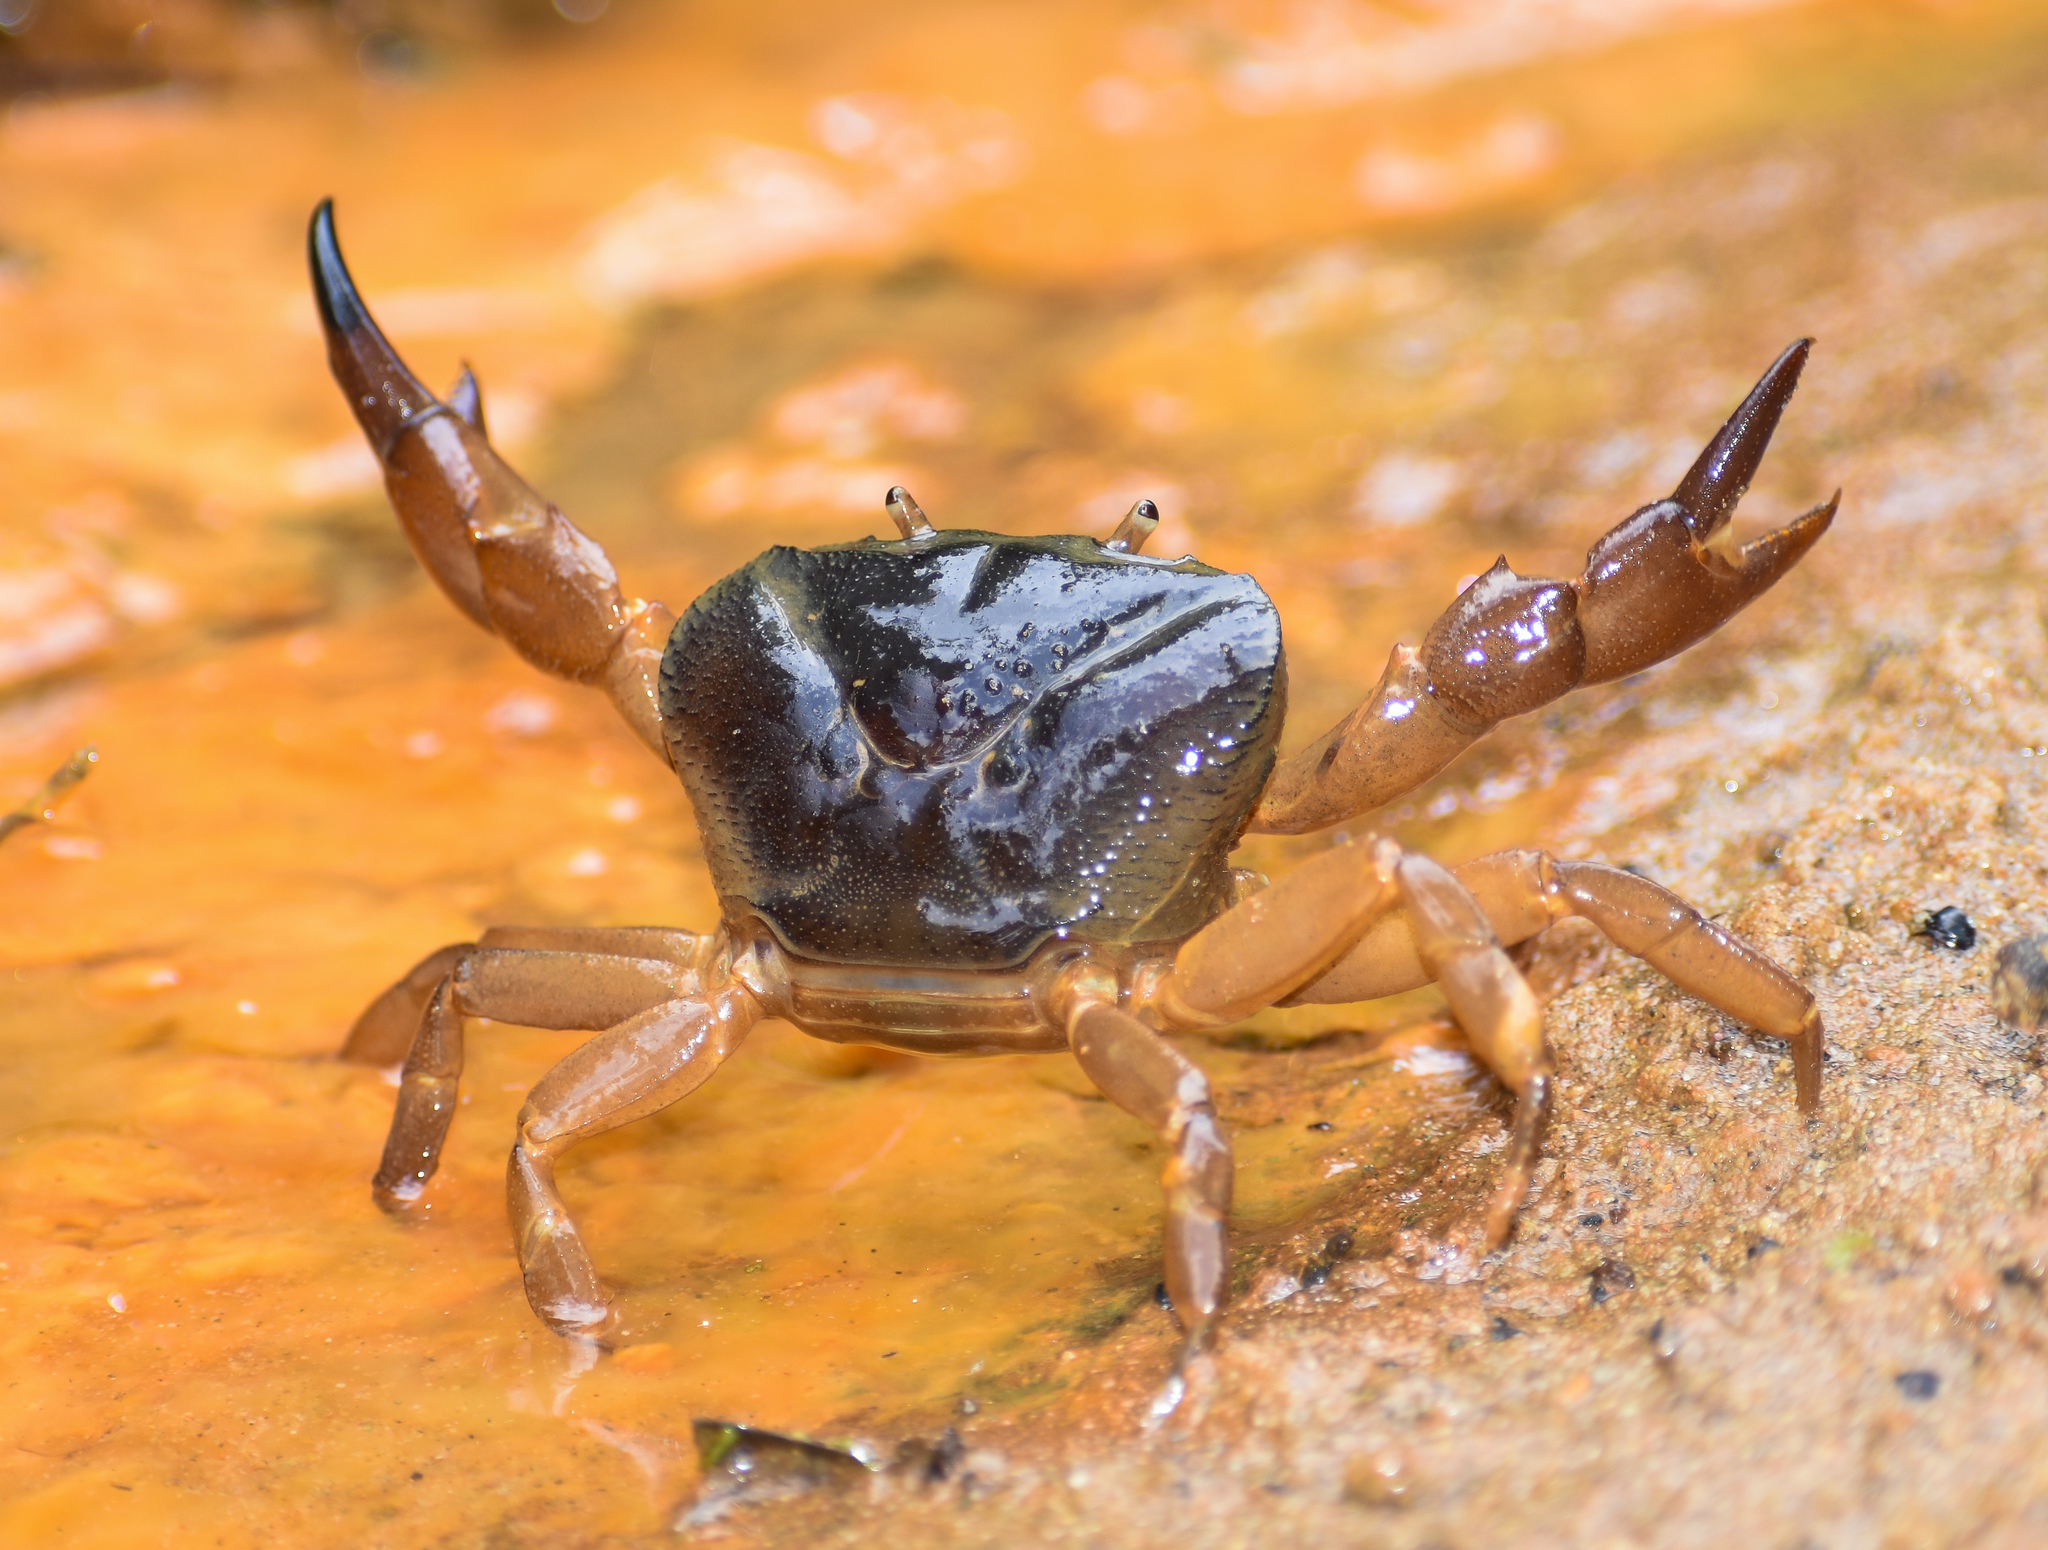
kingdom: Animalia
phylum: Arthropoda
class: Malacostraca
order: Decapoda
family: Gecarcinucidae
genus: Maydelliathelphusa
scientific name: Maydelliathelphusa lugubris
